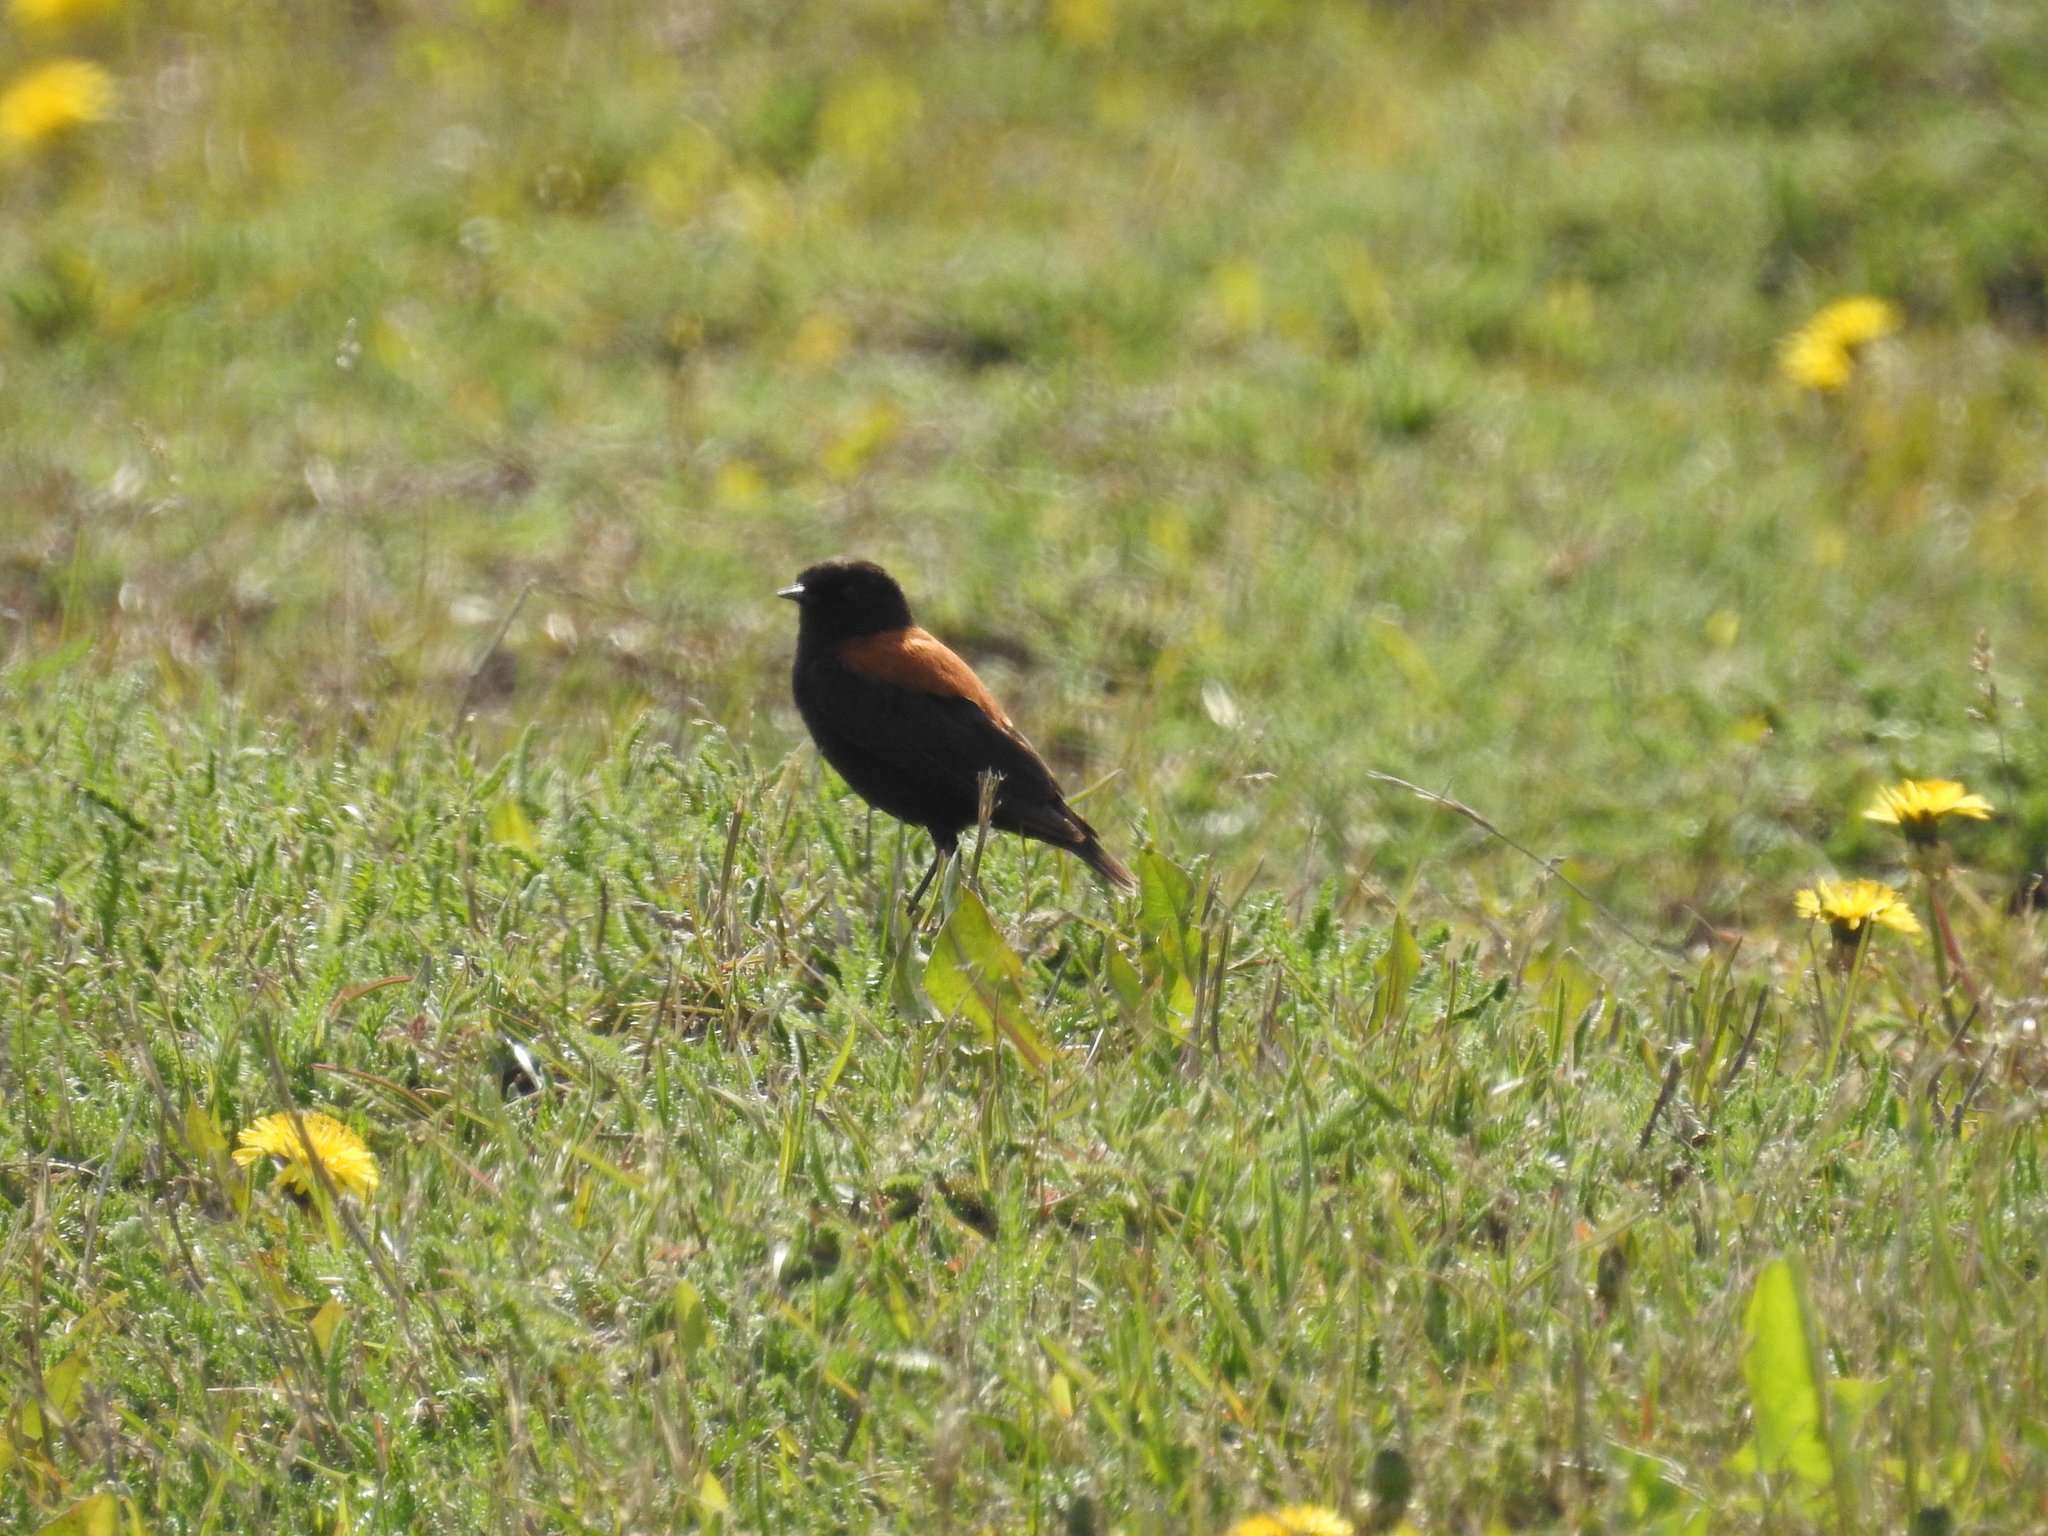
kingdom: Animalia
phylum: Chordata
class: Aves
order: Passeriformes
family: Tyrannidae
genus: Lessonia
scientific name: Lessonia rufa
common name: Austral negrito
